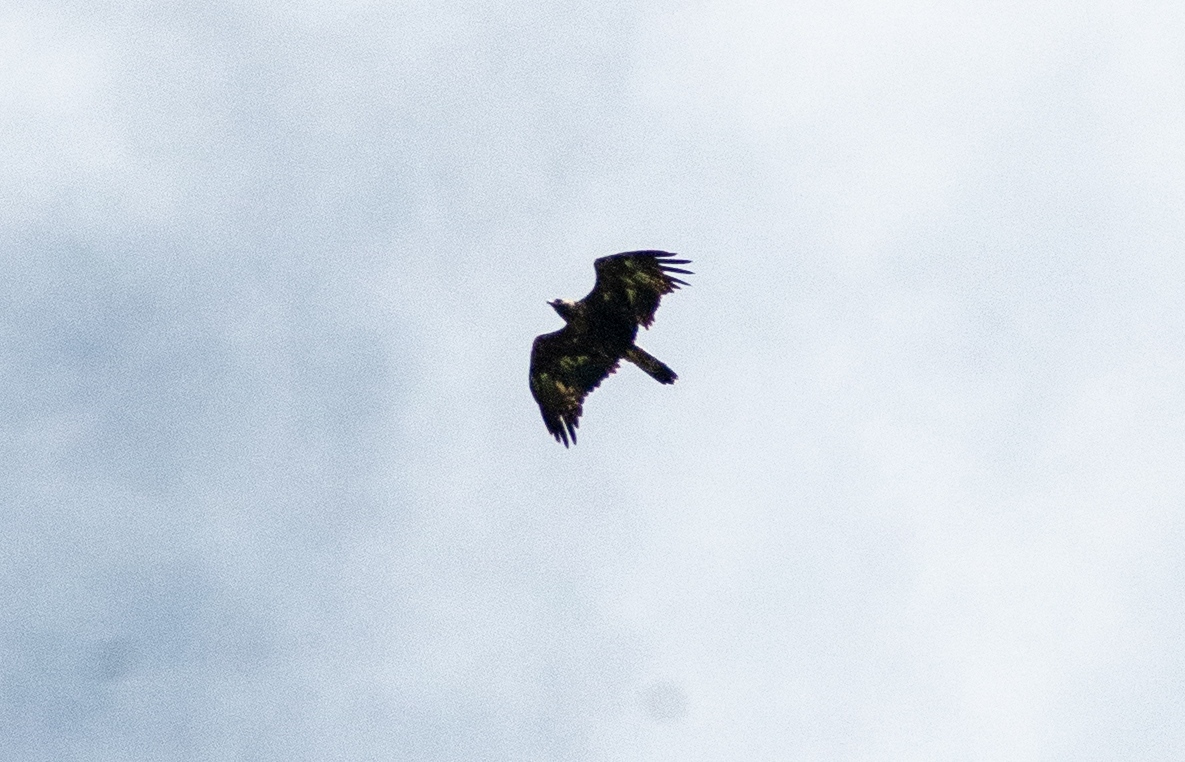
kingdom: Animalia
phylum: Chordata
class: Aves
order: Accipitriformes
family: Accipitridae
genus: Aquila
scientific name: Aquila chrysaetos
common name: Golden eagle
